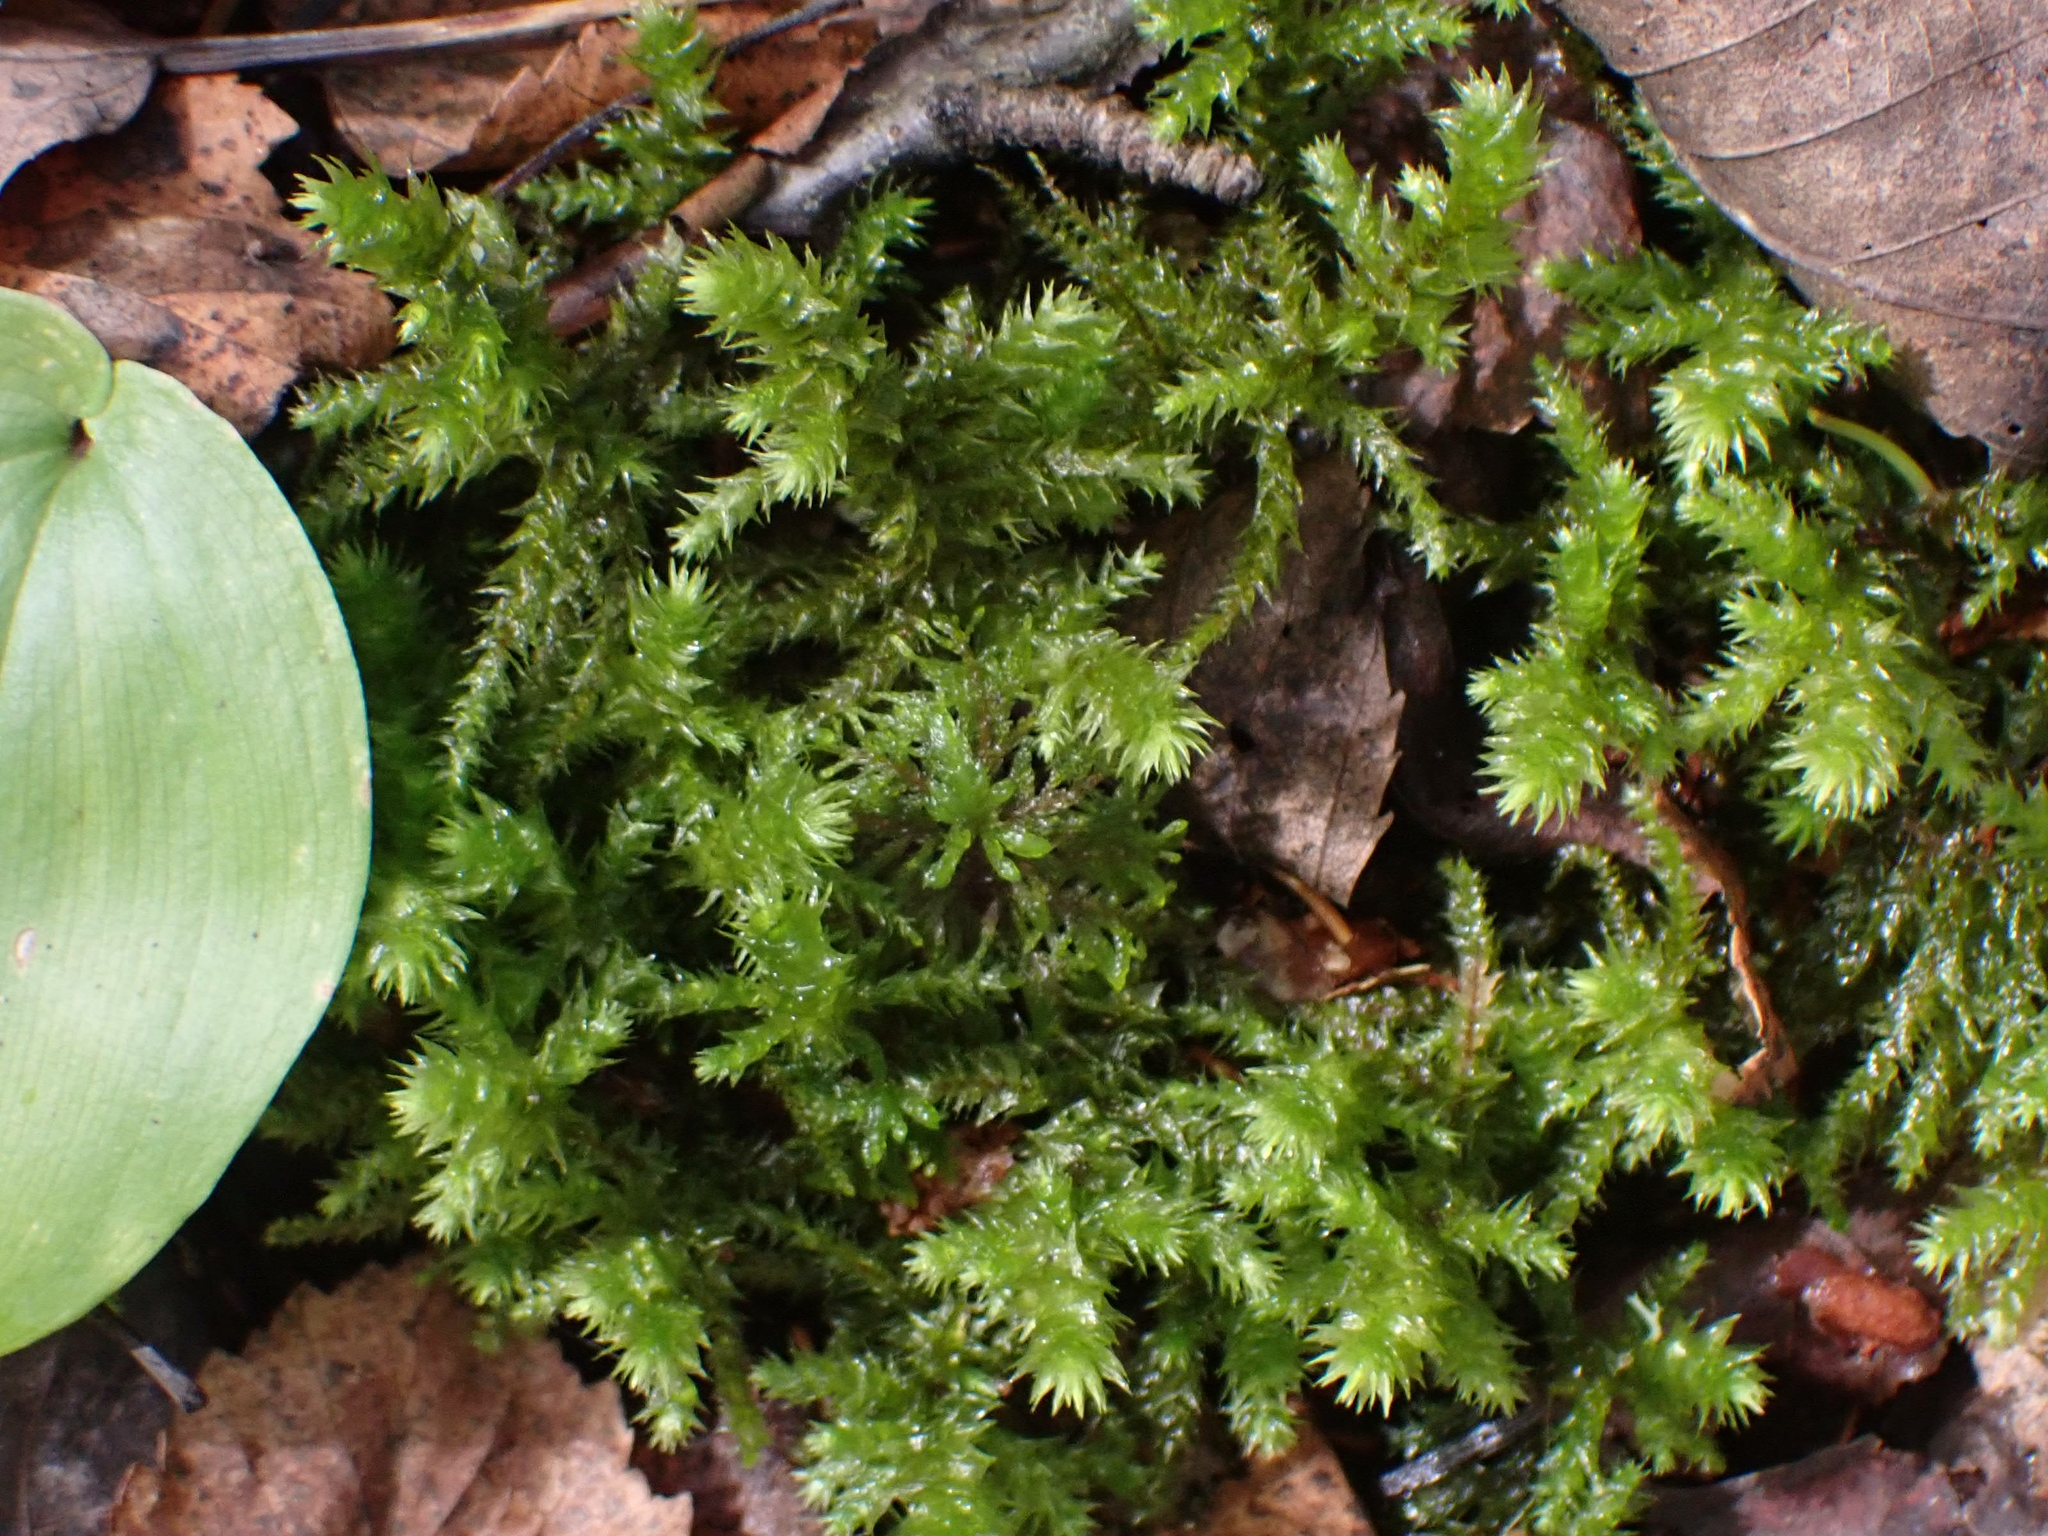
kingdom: Plantae
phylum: Bryophyta
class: Bryopsida
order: Hypnales
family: Hylocomiaceae
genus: Hylocomiadelphus
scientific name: Hylocomiadelphus triquetrus
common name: Rough goose neck moss
